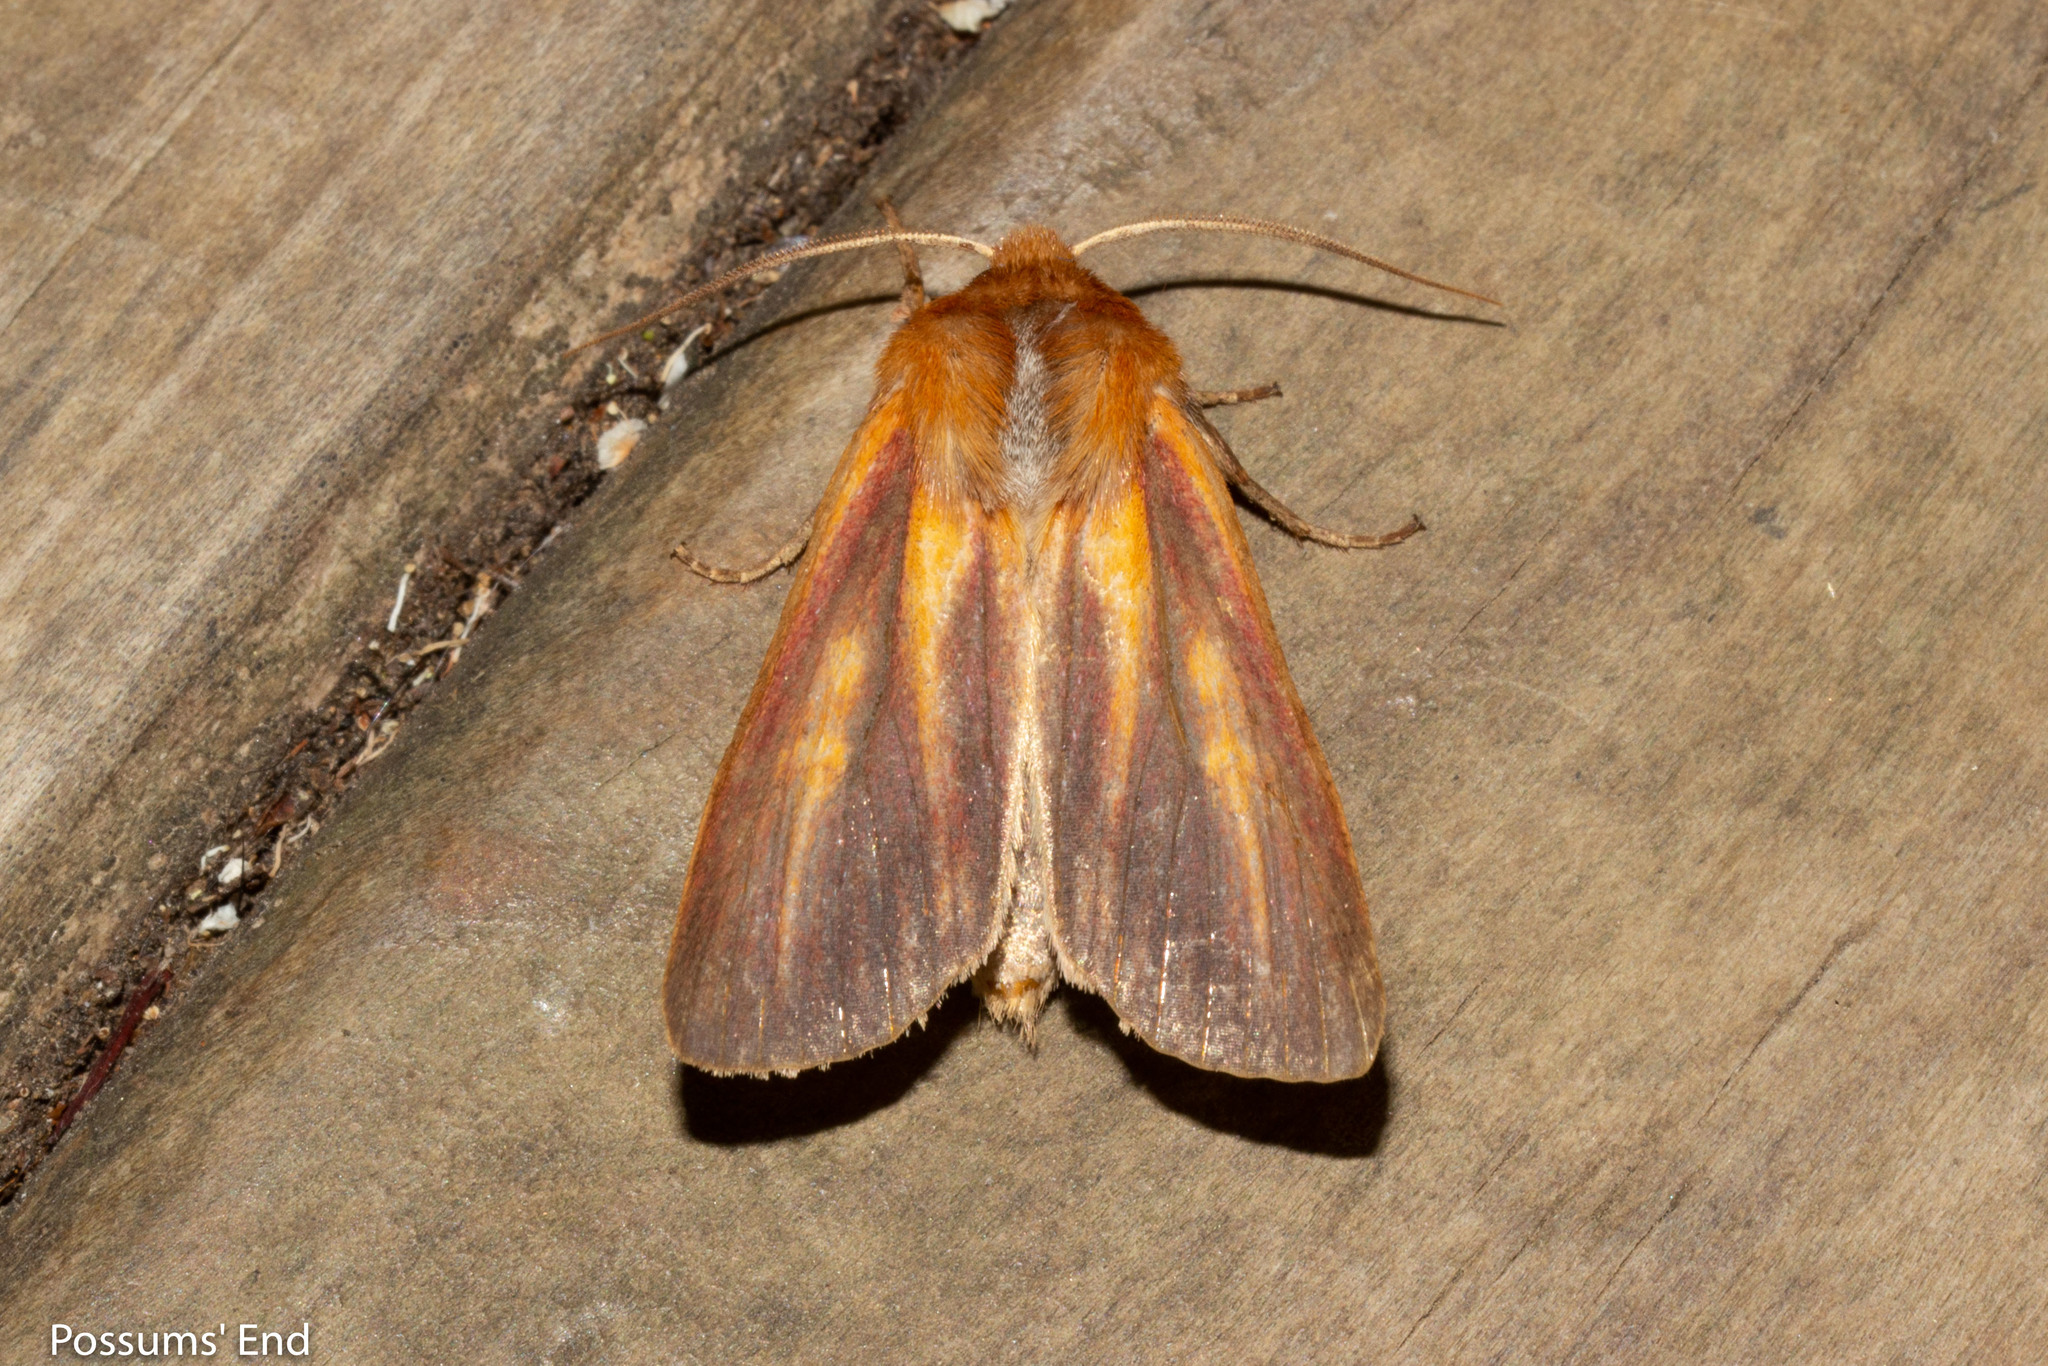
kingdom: Animalia
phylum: Arthropoda
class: Insecta
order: Lepidoptera
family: Noctuidae
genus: Ichneutica
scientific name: Ichneutica
